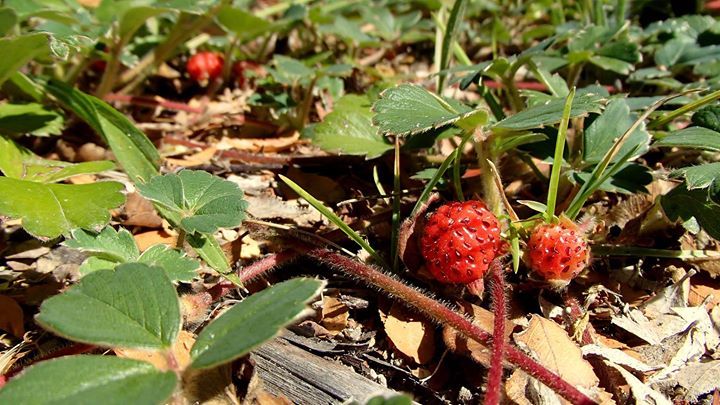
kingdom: Plantae
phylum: Tracheophyta
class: Magnoliopsida
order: Rosales
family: Rosaceae
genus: Fragaria
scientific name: Fragaria chiloensis
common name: Beach strawberry
